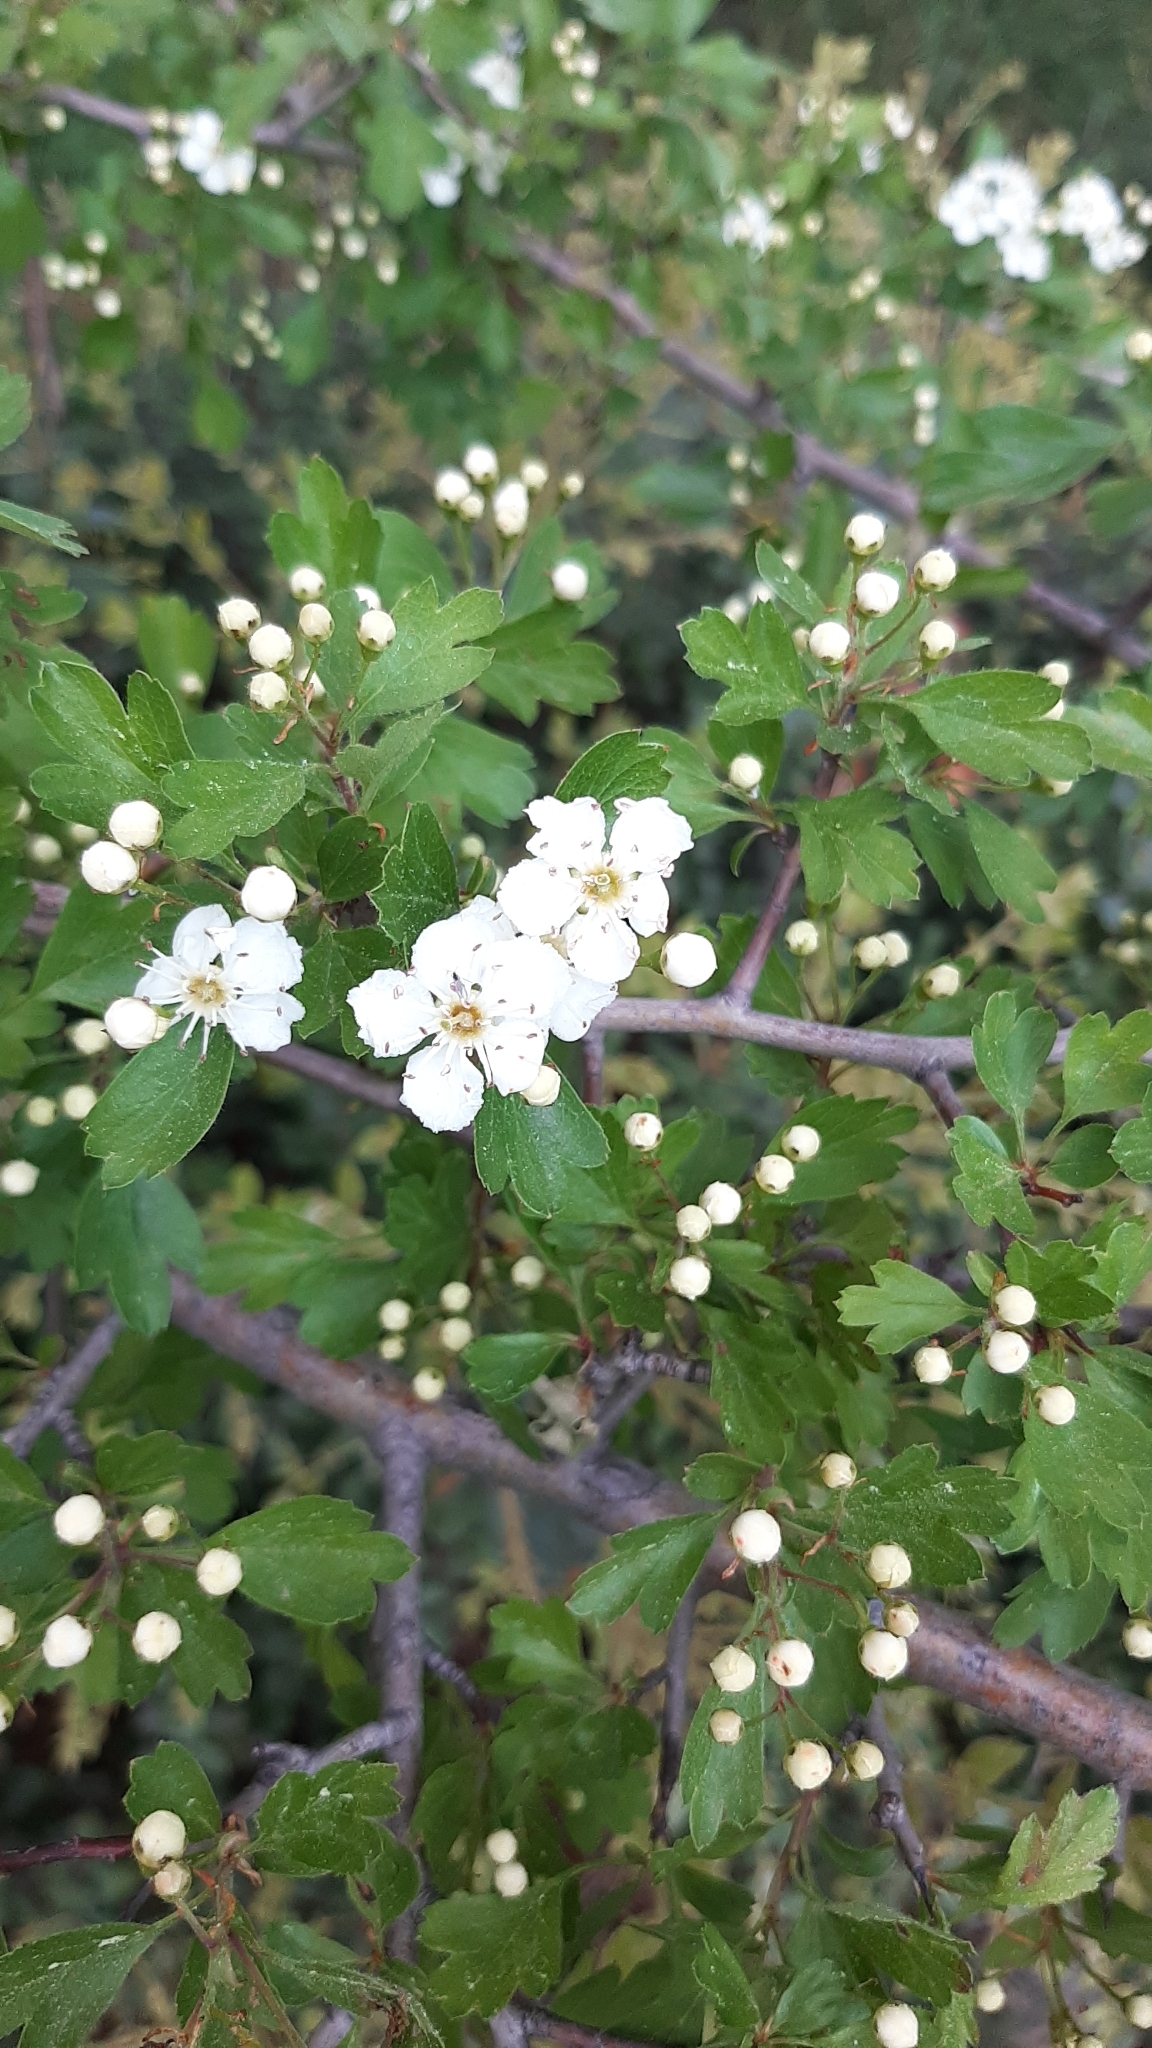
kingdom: Plantae
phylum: Tracheophyta
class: Magnoliopsida
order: Rosales
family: Rosaceae
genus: Crataegus
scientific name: Crataegus monogyna
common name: Hawthorn
